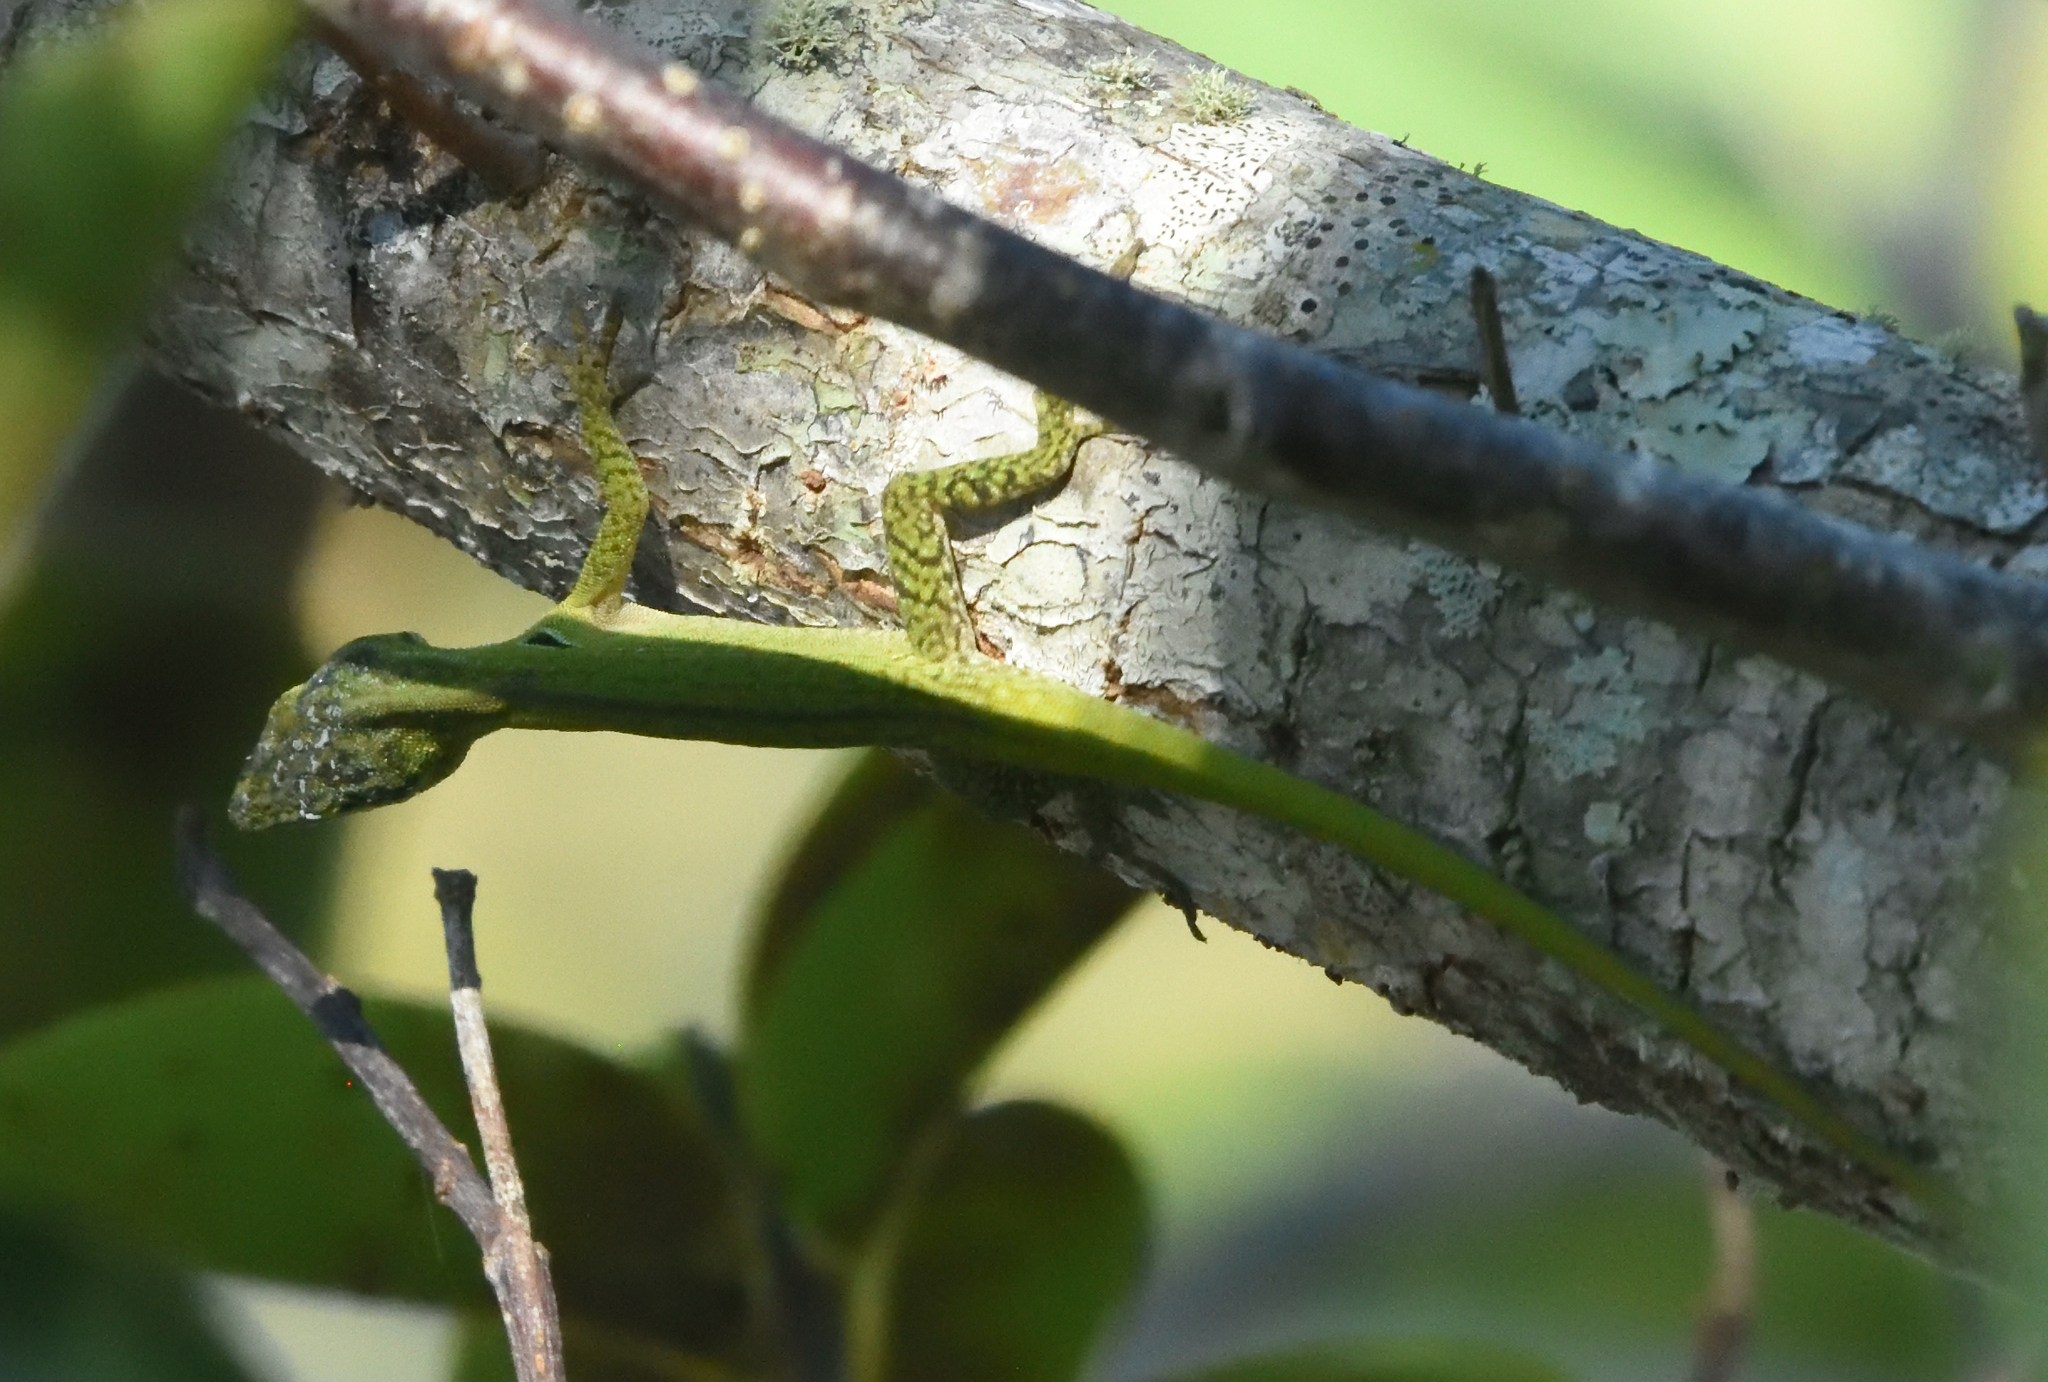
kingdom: Animalia
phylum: Chordata
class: Squamata
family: Dactyloidae
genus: Anolis
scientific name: Anolis carolinensis
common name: Green anole
